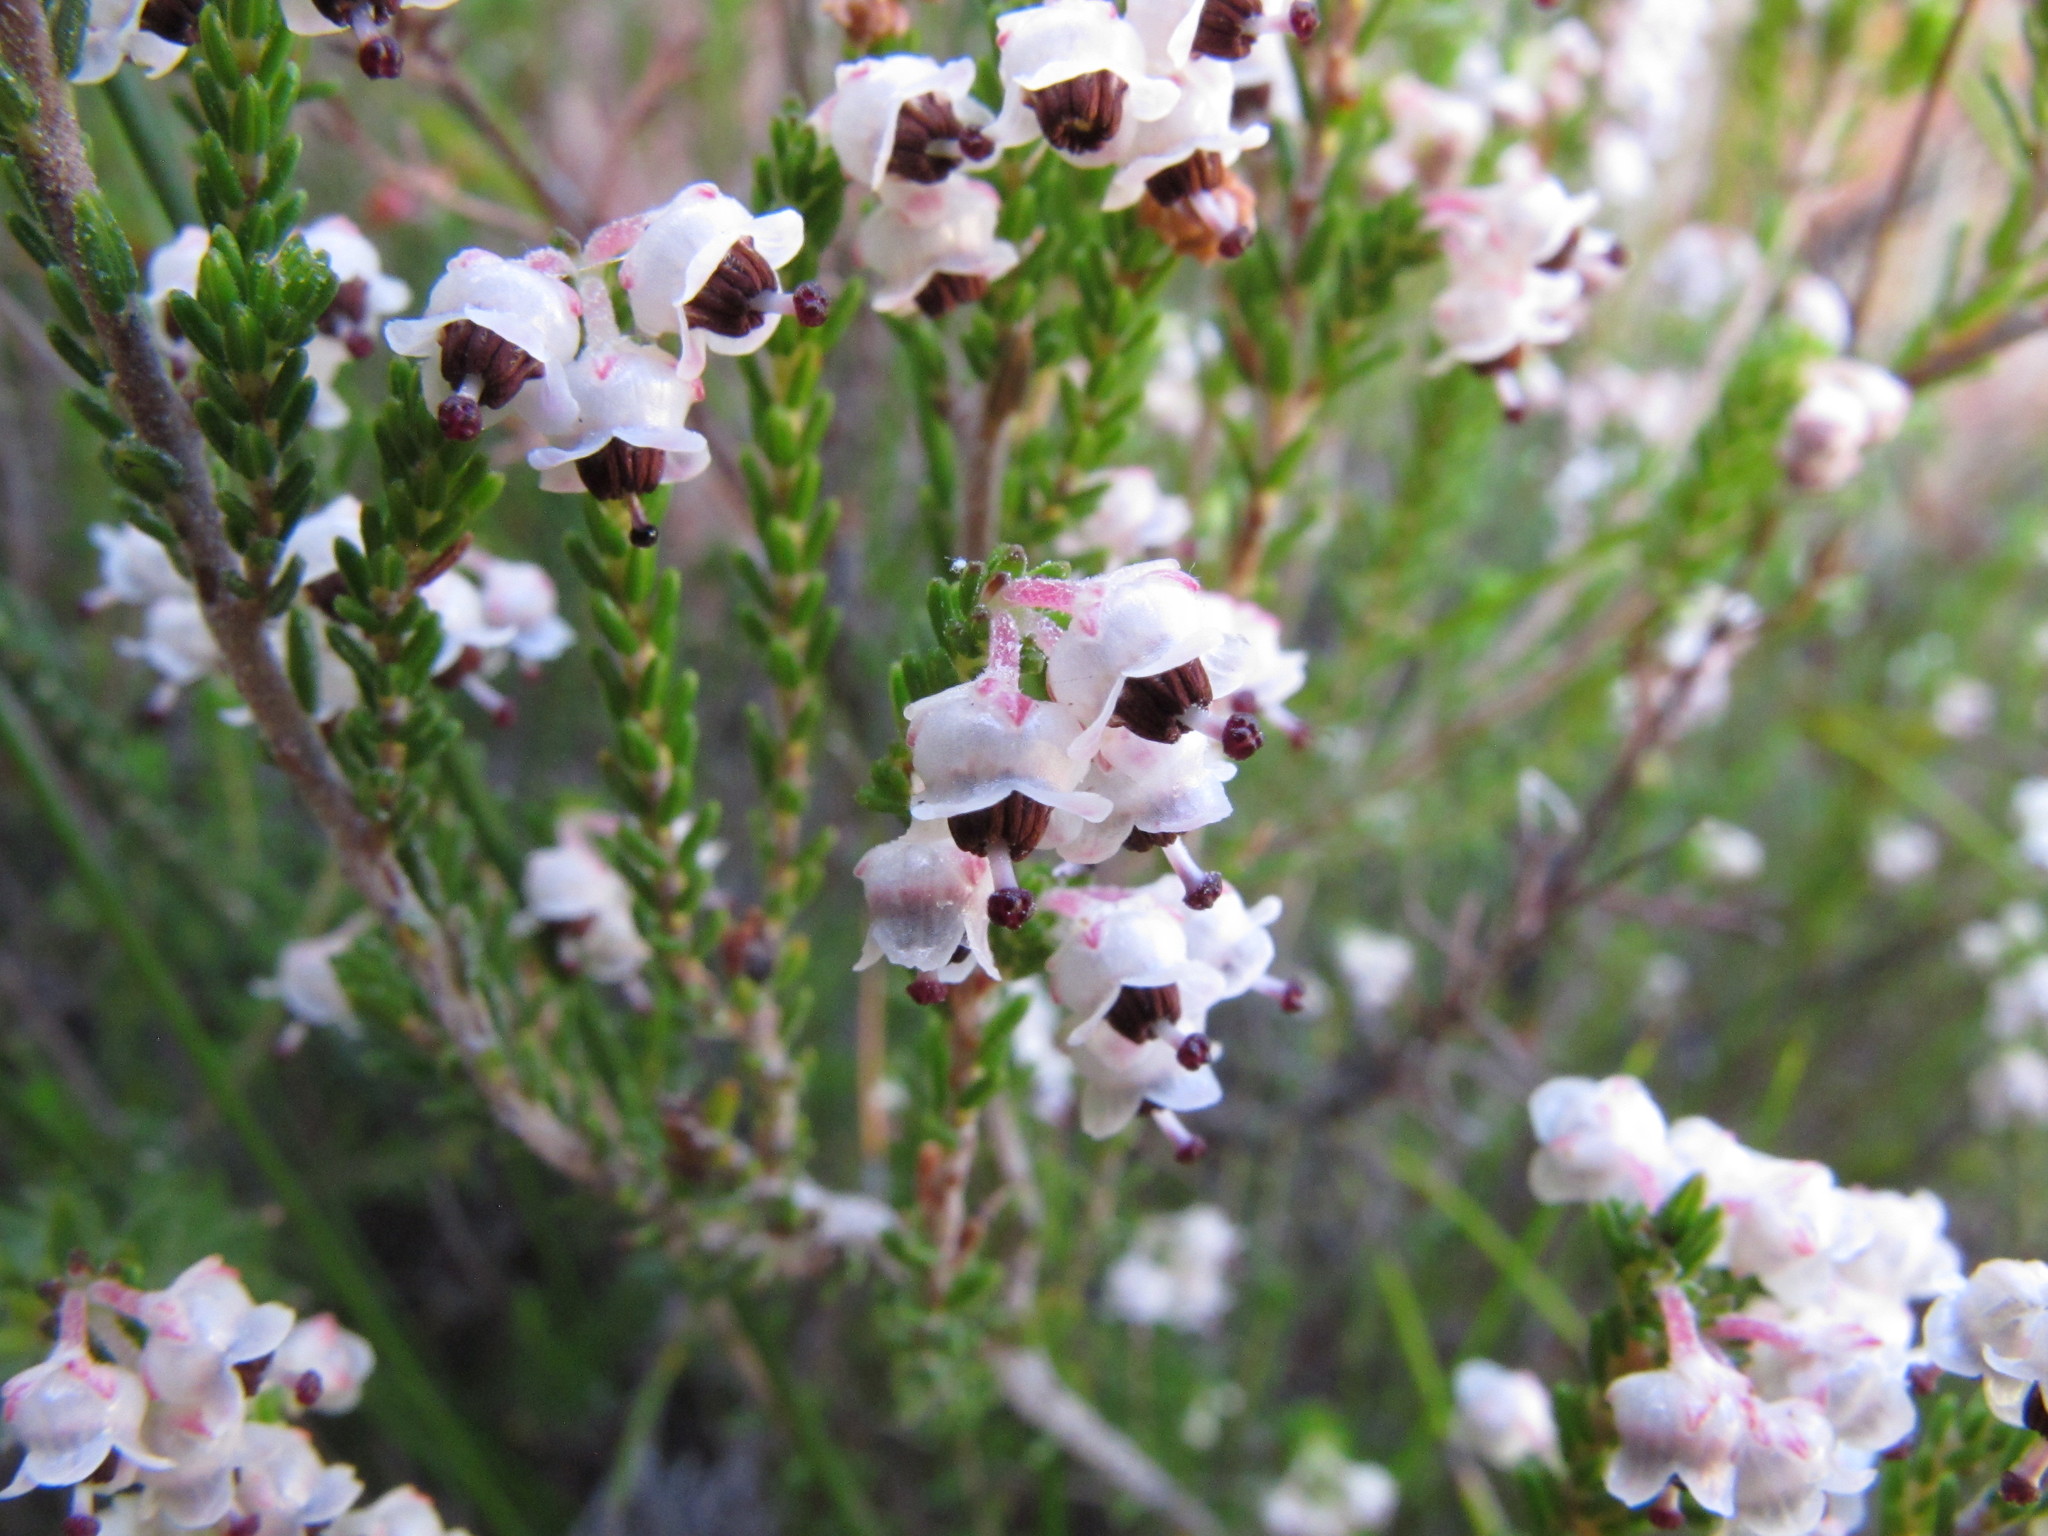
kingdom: Plantae
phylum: Tracheophyta
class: Magnoliopsida
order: Ericales
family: Ericaceae
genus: Erica
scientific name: Erica zwartbergensis
